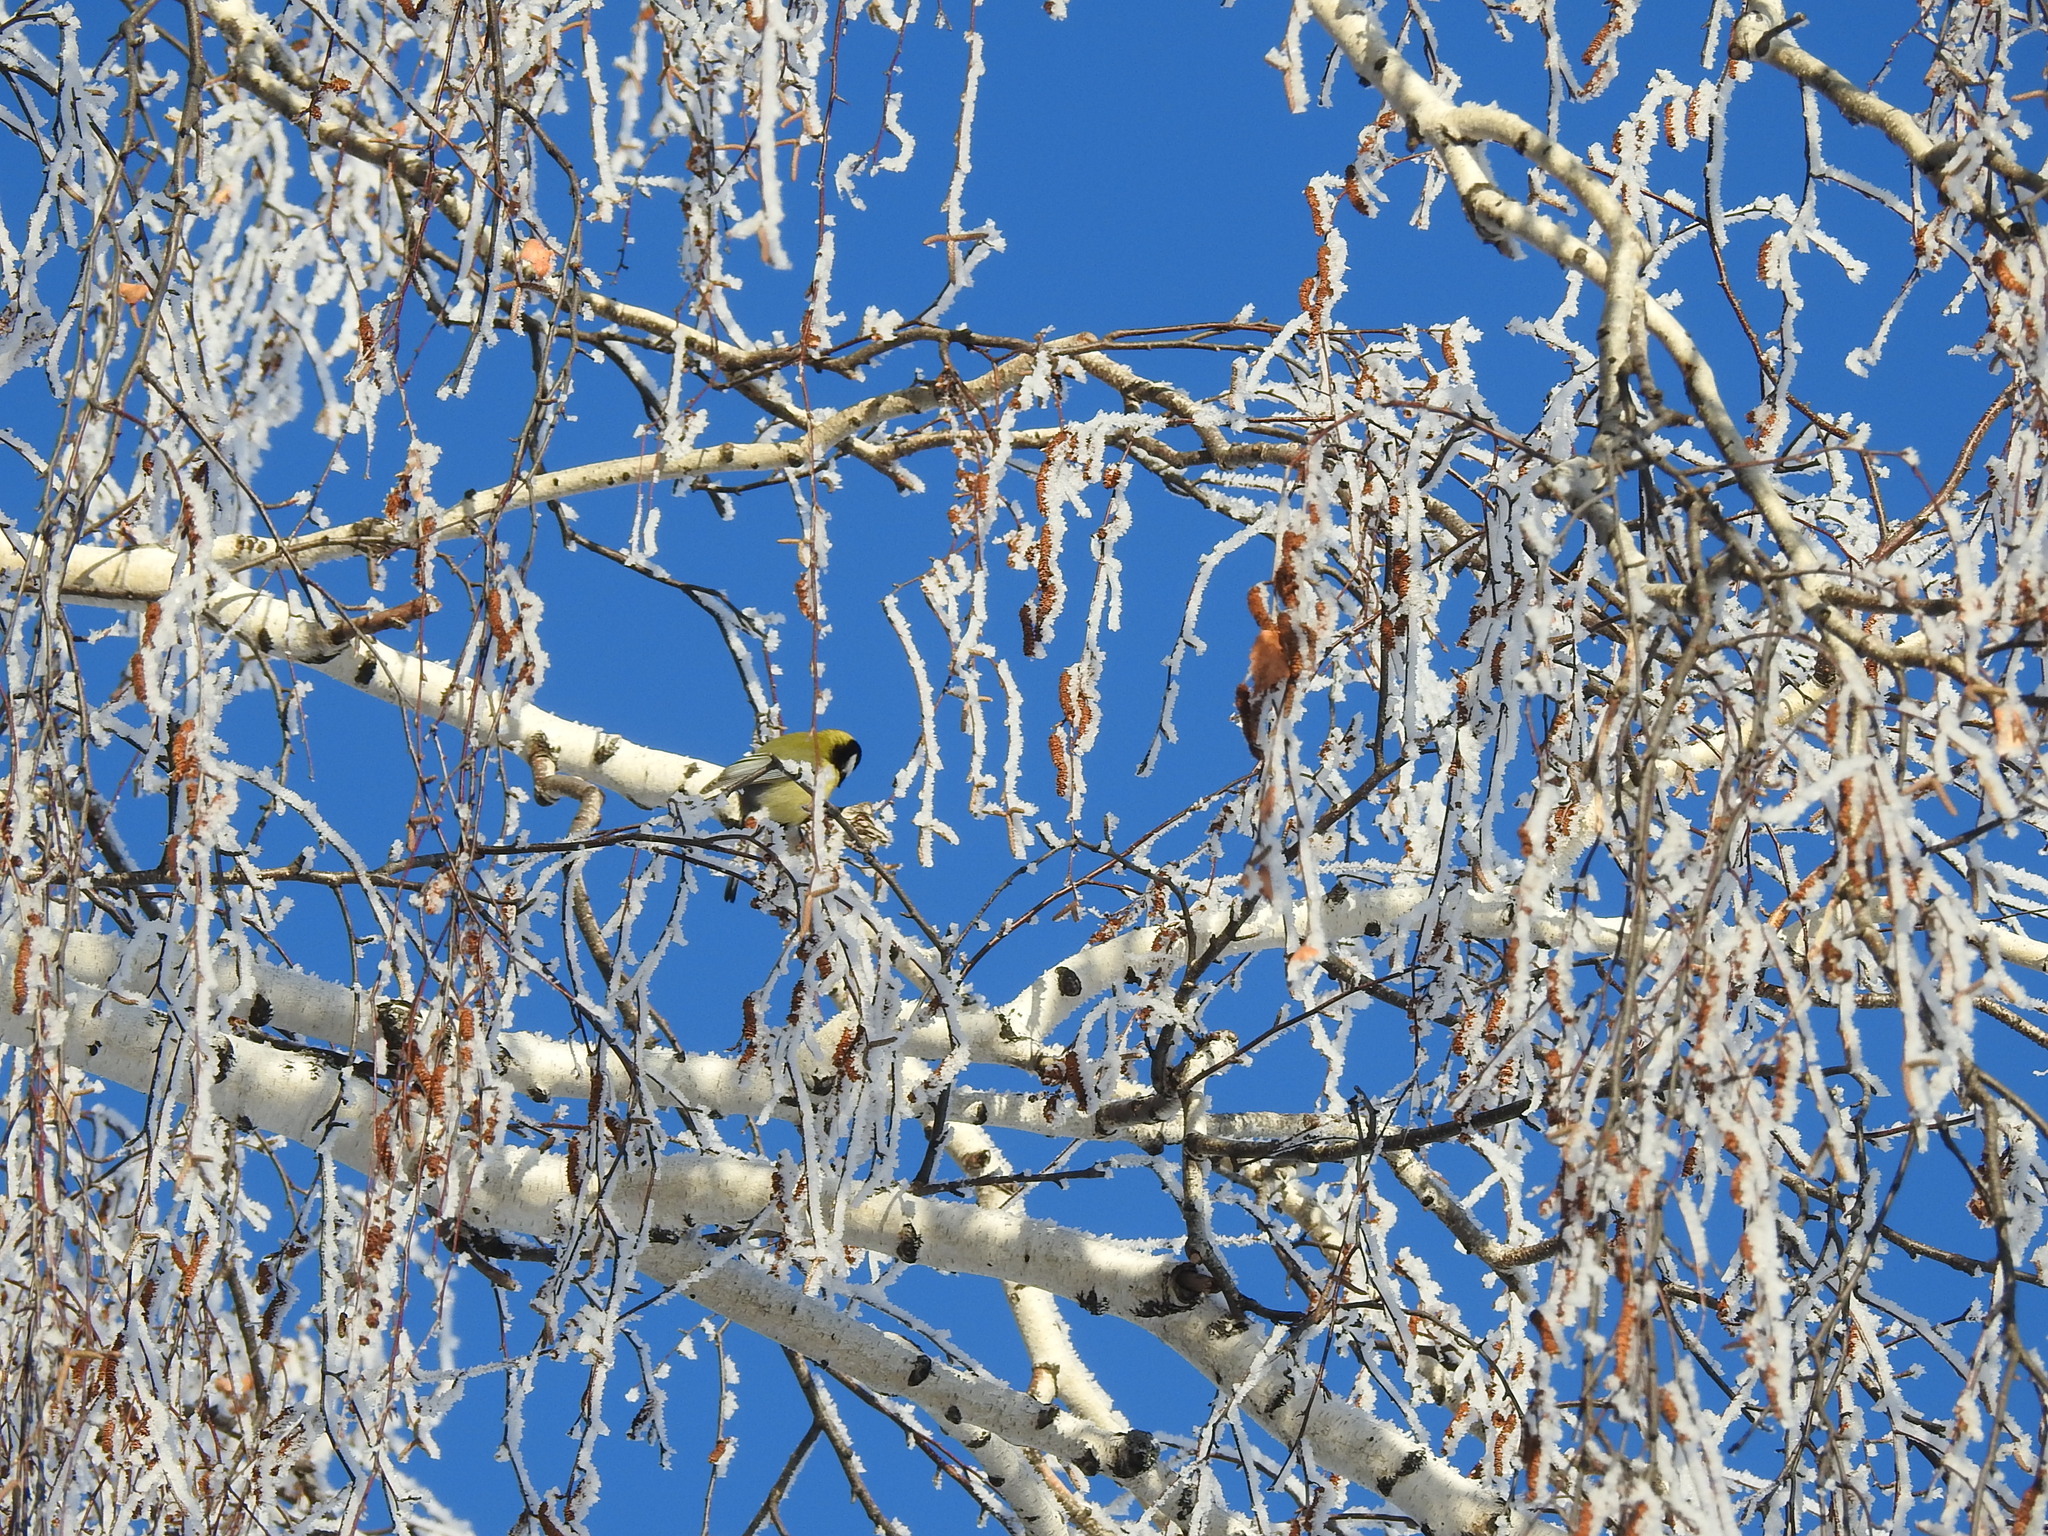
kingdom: Animalia
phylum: Chordata
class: Aves
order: Passeriformes
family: Paridae
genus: Parus
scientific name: Parus major
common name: Great tit
